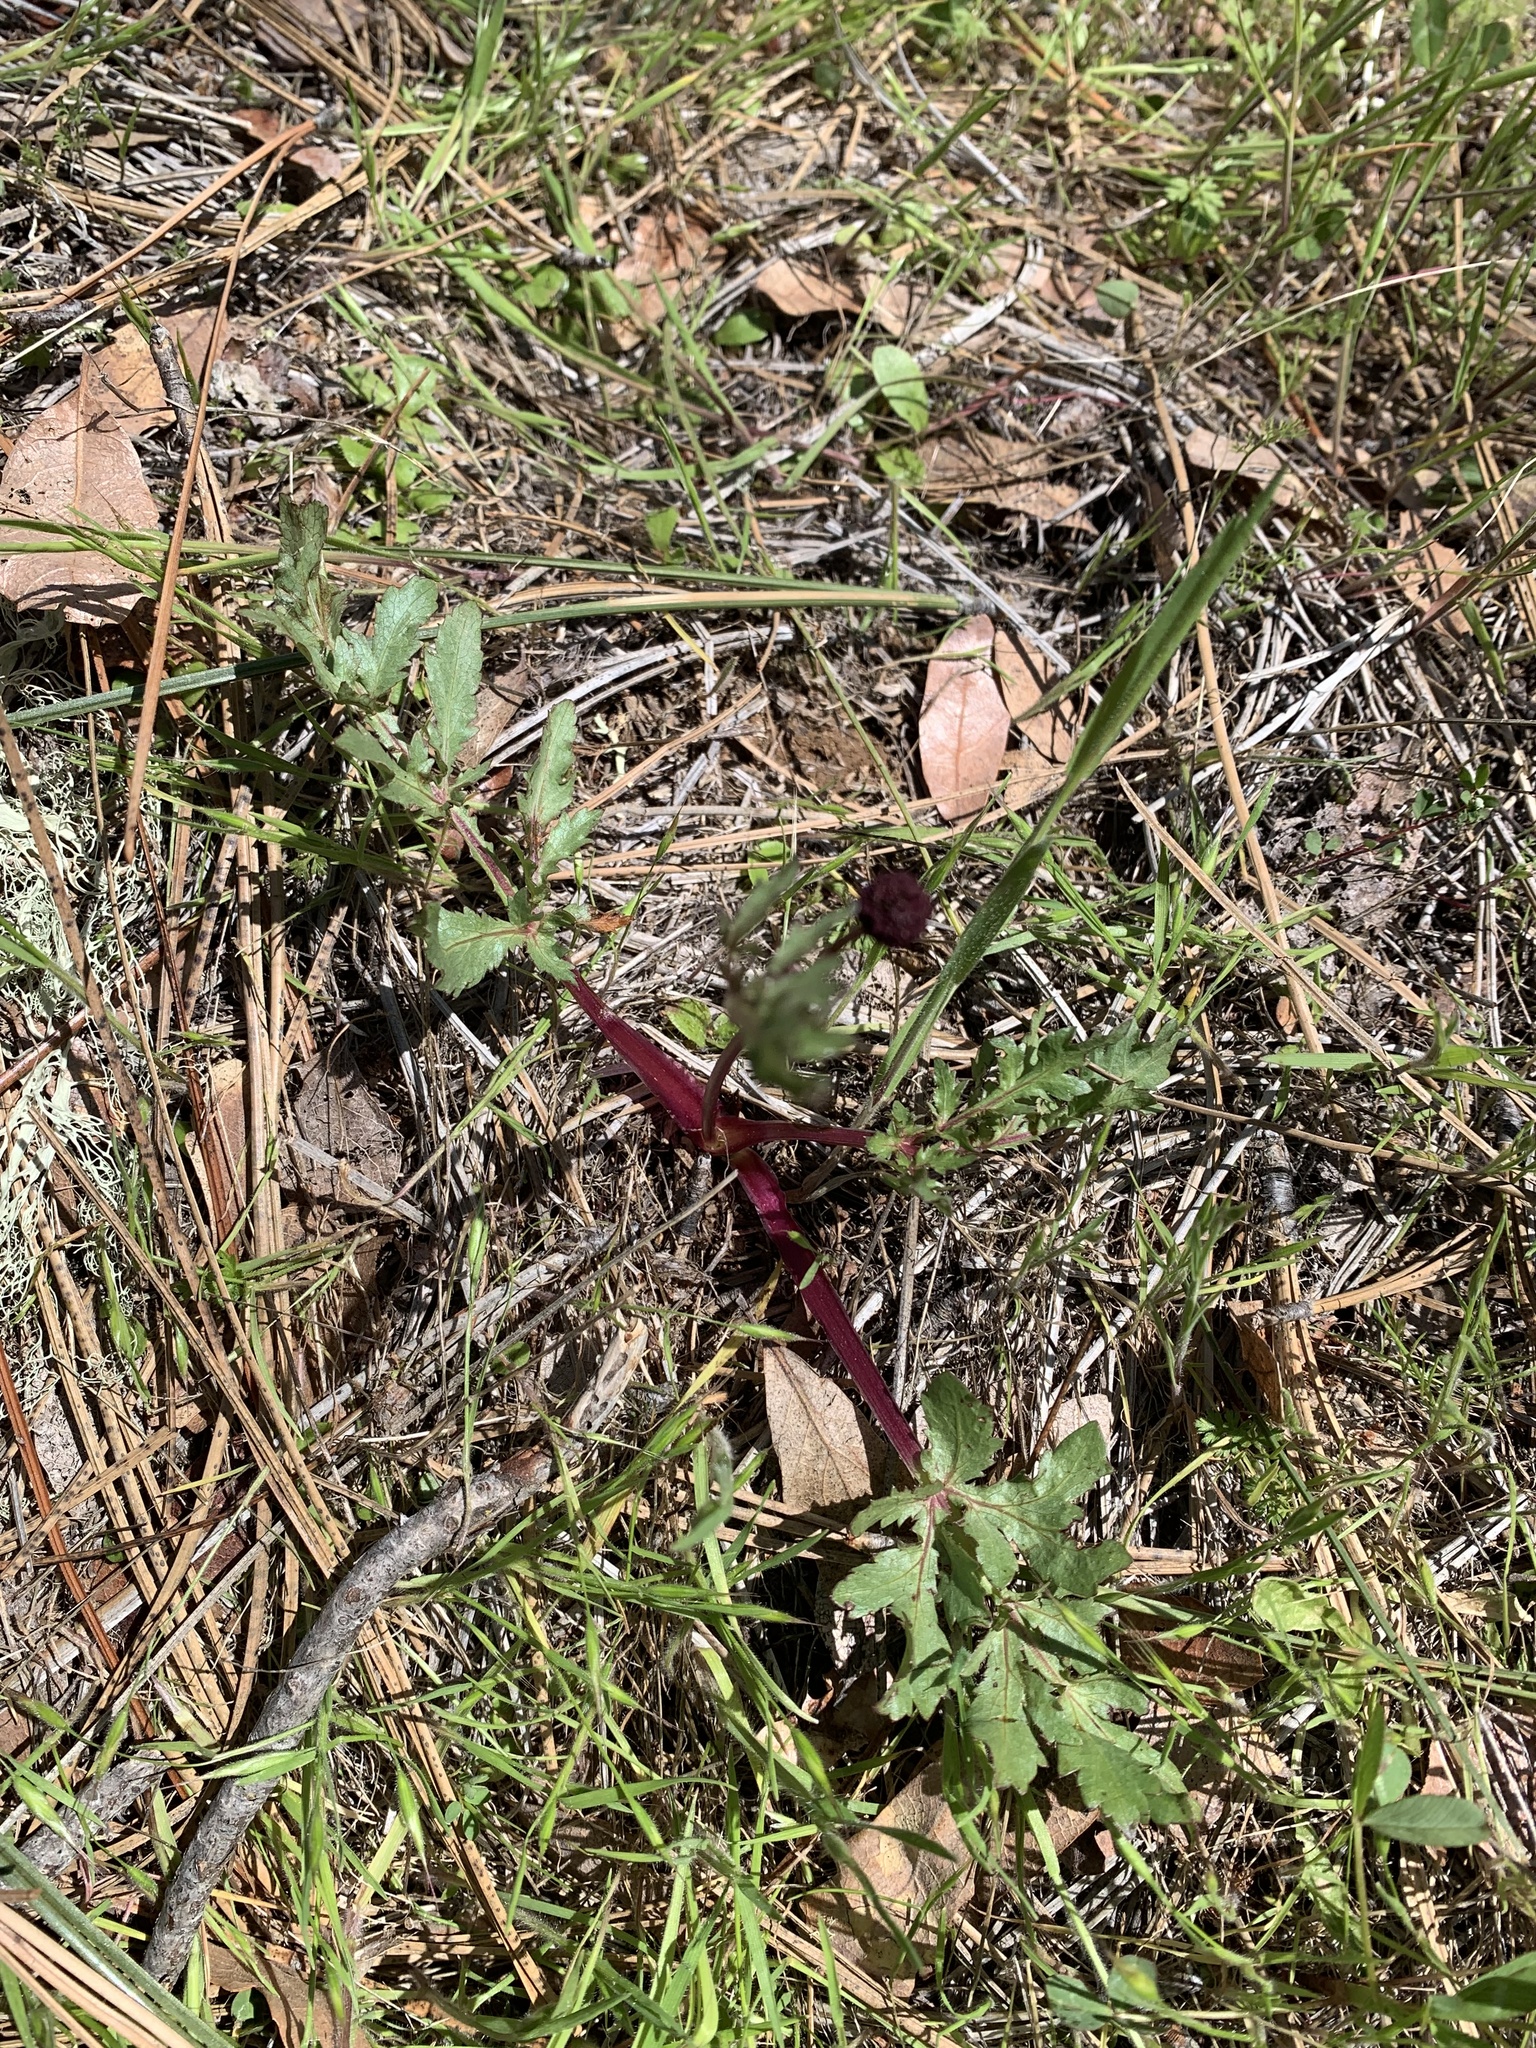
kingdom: Plantae
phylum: Tracheophyta
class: Magnoliopsida
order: Apiales
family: Apiaceae
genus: Sanicula
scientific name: Sanicula bipinnatifida
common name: Shoe-buttons
